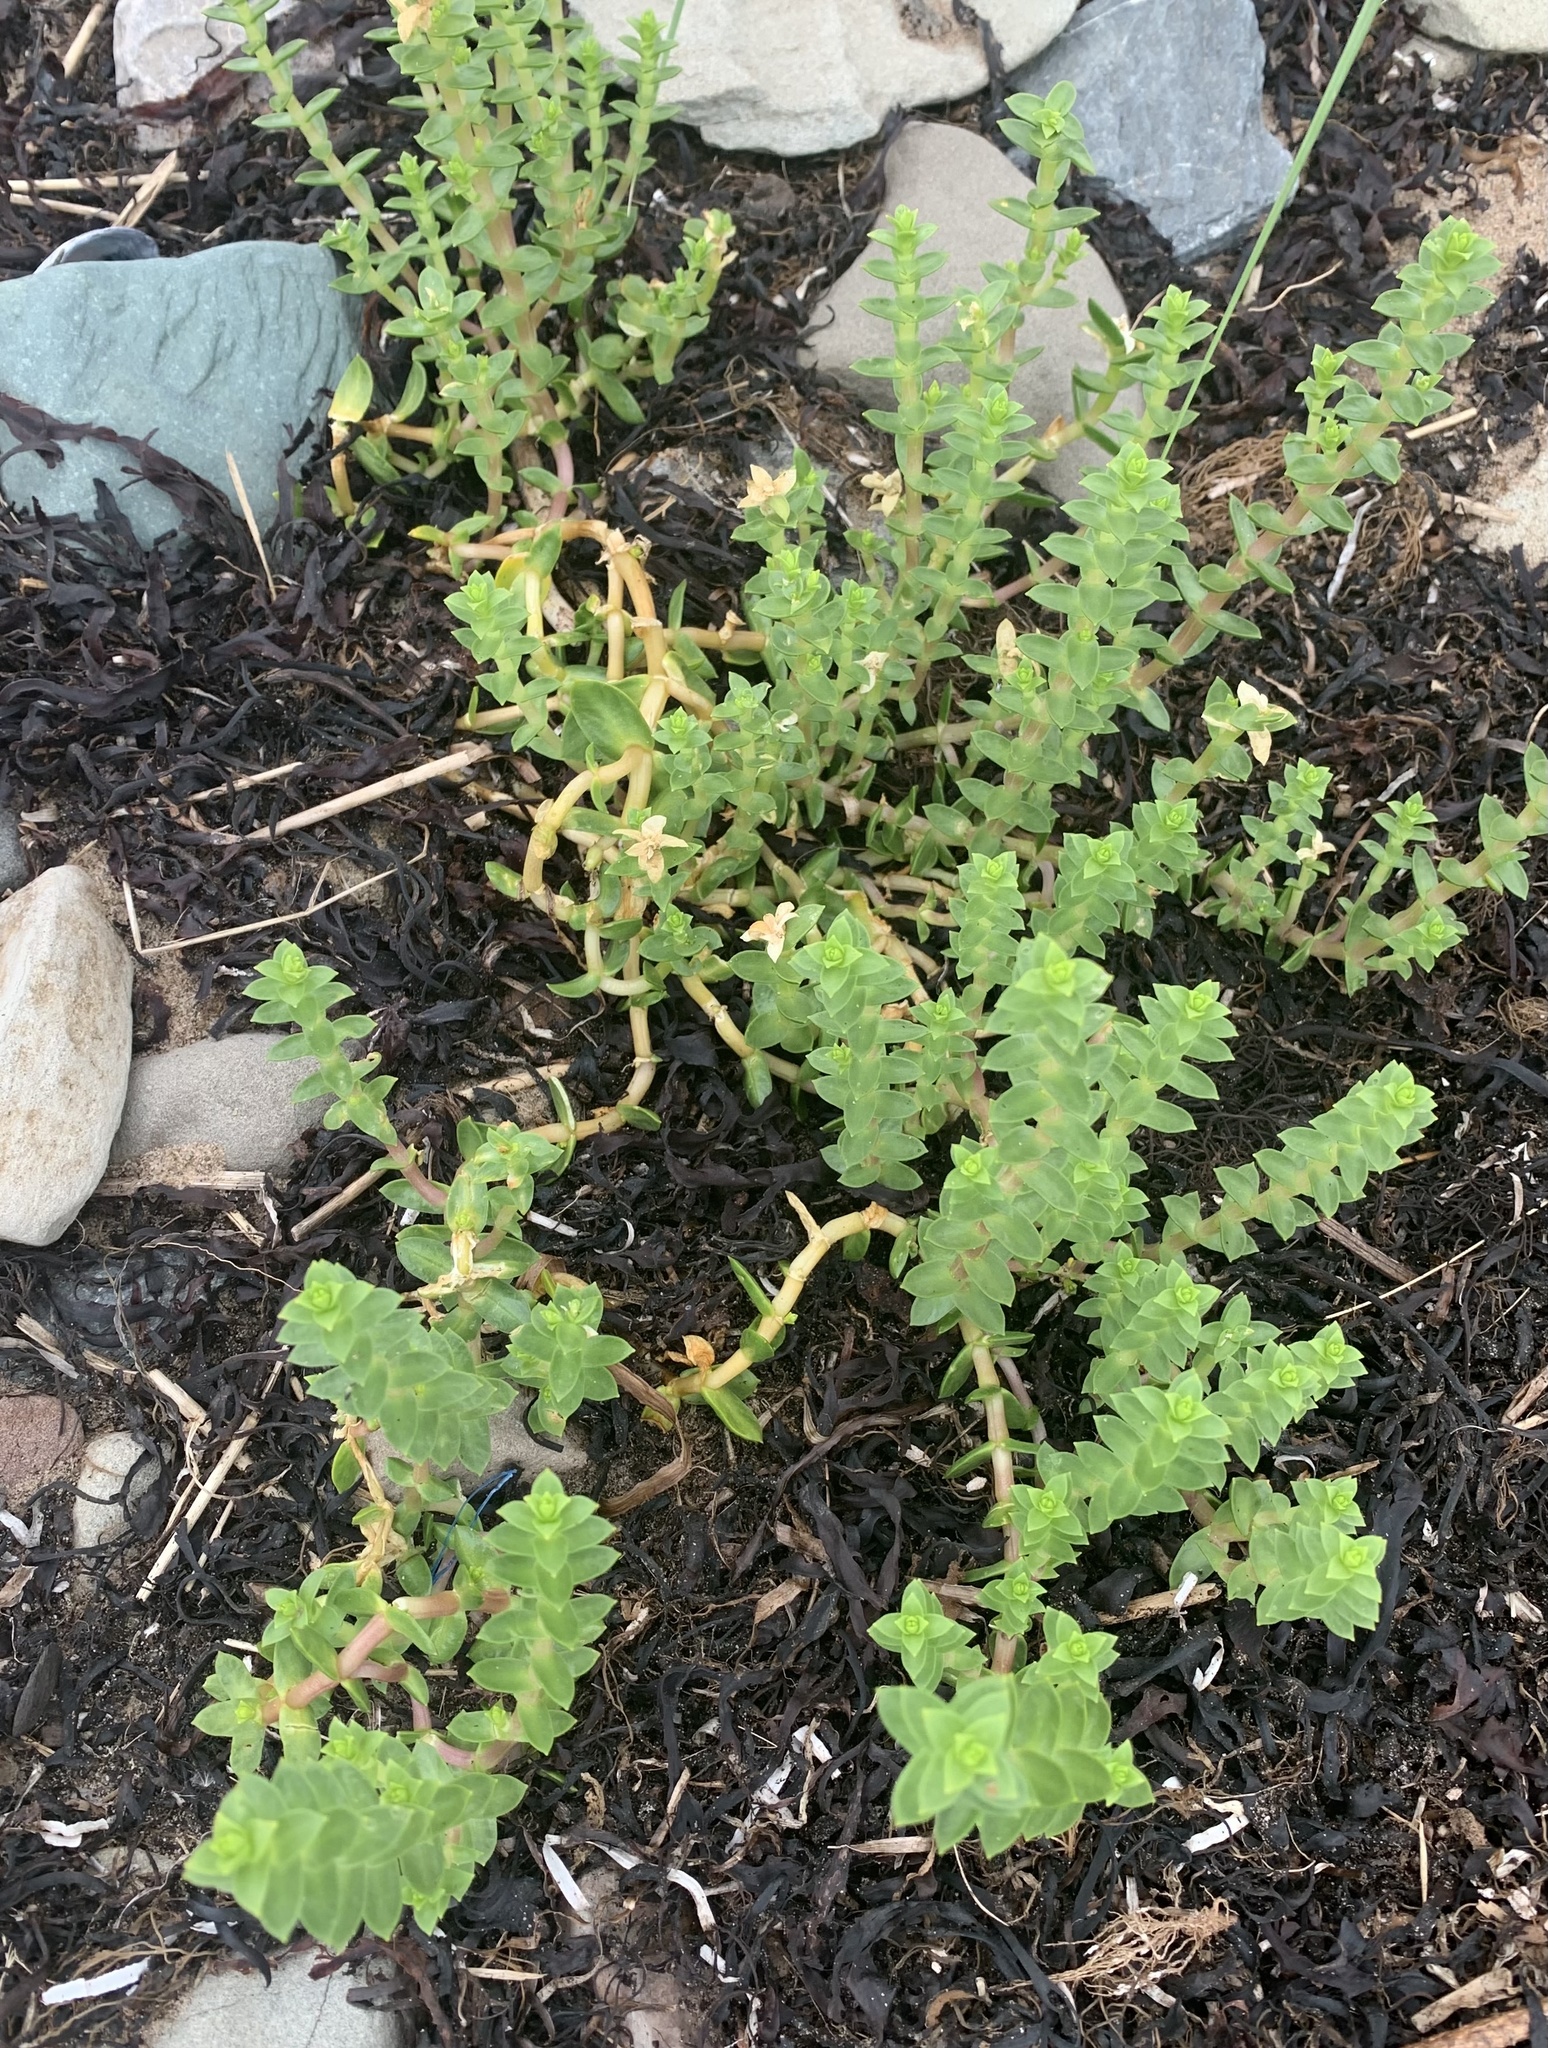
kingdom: Plantae
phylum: Tracheophyta
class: Magnoliopsida
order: Caryophyllales
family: Caryophyllaceae
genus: Honckenya
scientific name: Honckenya peploides
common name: Sea sandwort
